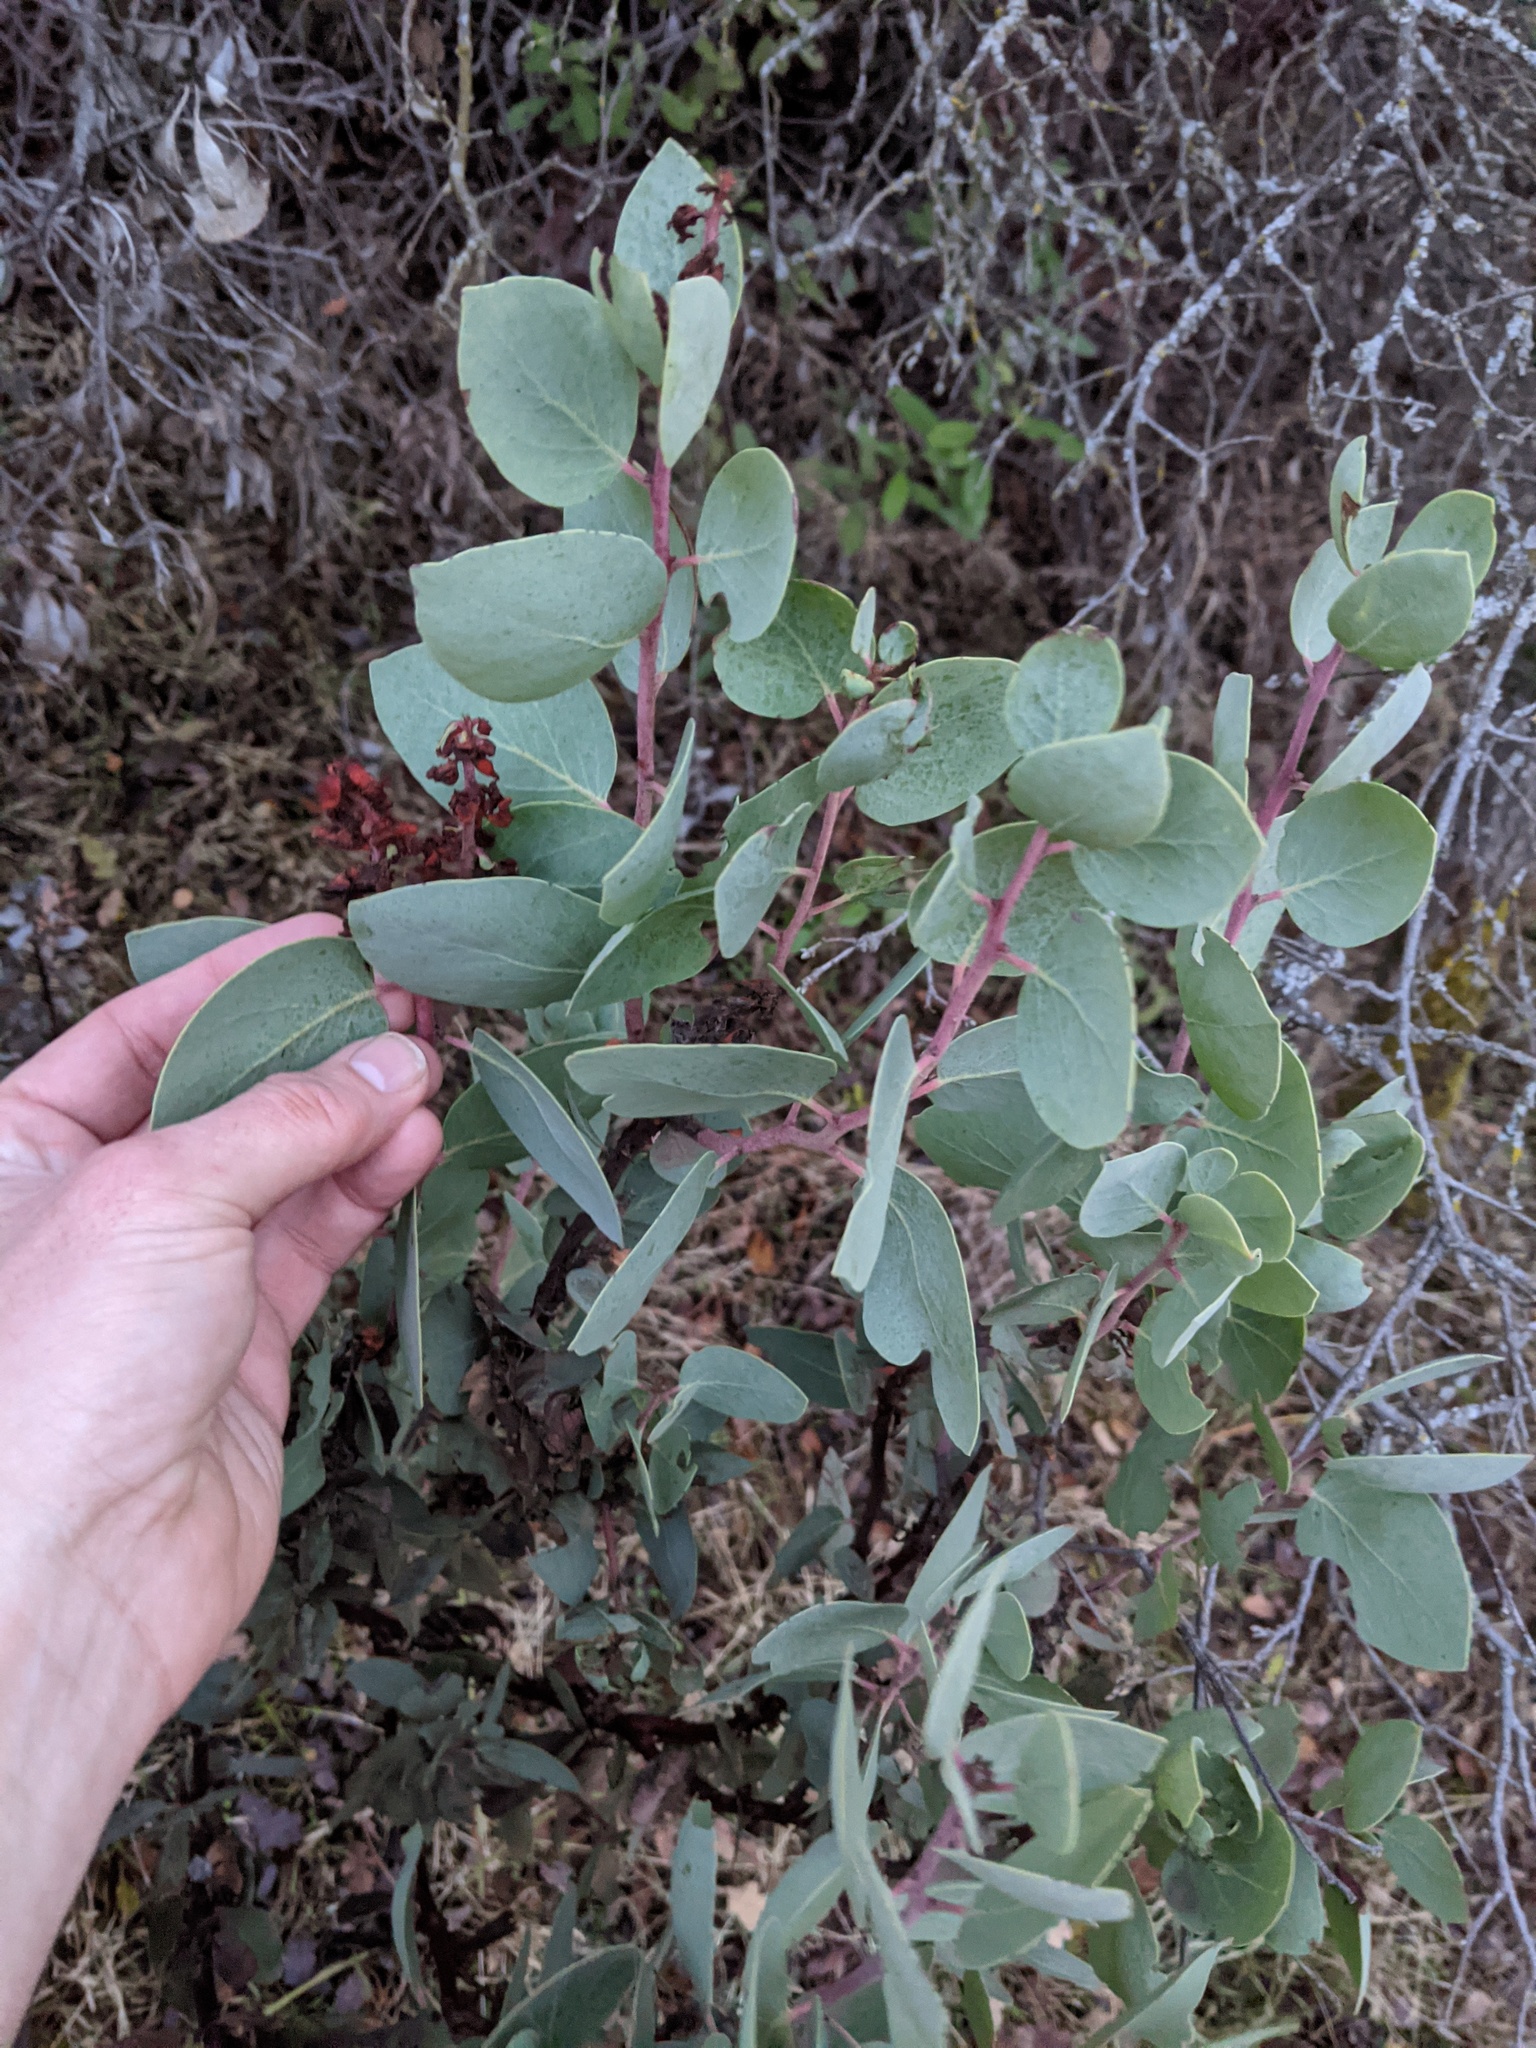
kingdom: Plantae
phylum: Tracheophyta
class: Magnoliopsida
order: Ericales
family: Ericaceae
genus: Arctostaphylos
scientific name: Arctostaphylos viscida
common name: White-leaf manzanita
